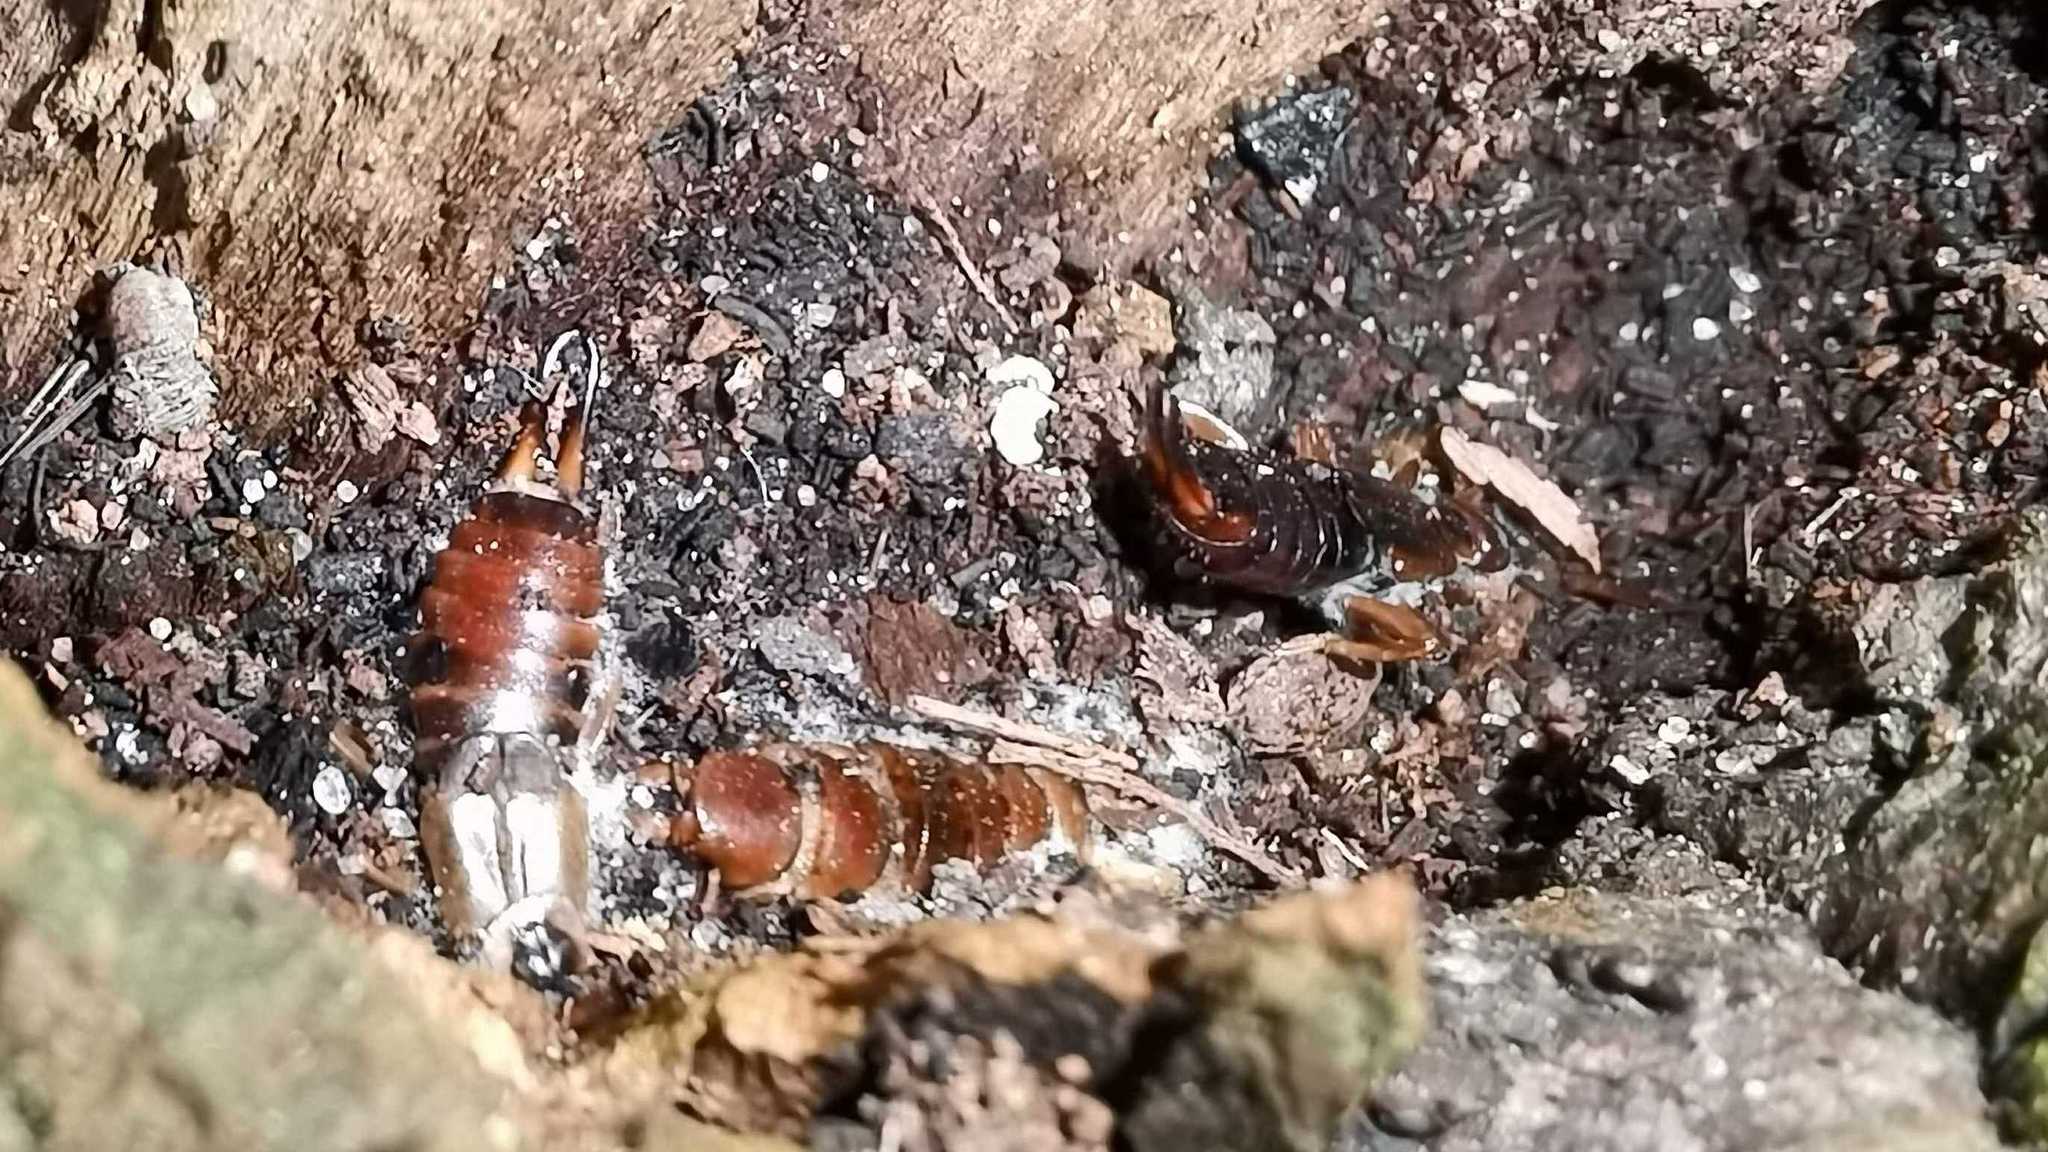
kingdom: Animalia
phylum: Arthropoda
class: Insecta
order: Dermaptera
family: Forficulidae
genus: Forficula
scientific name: Forficula
